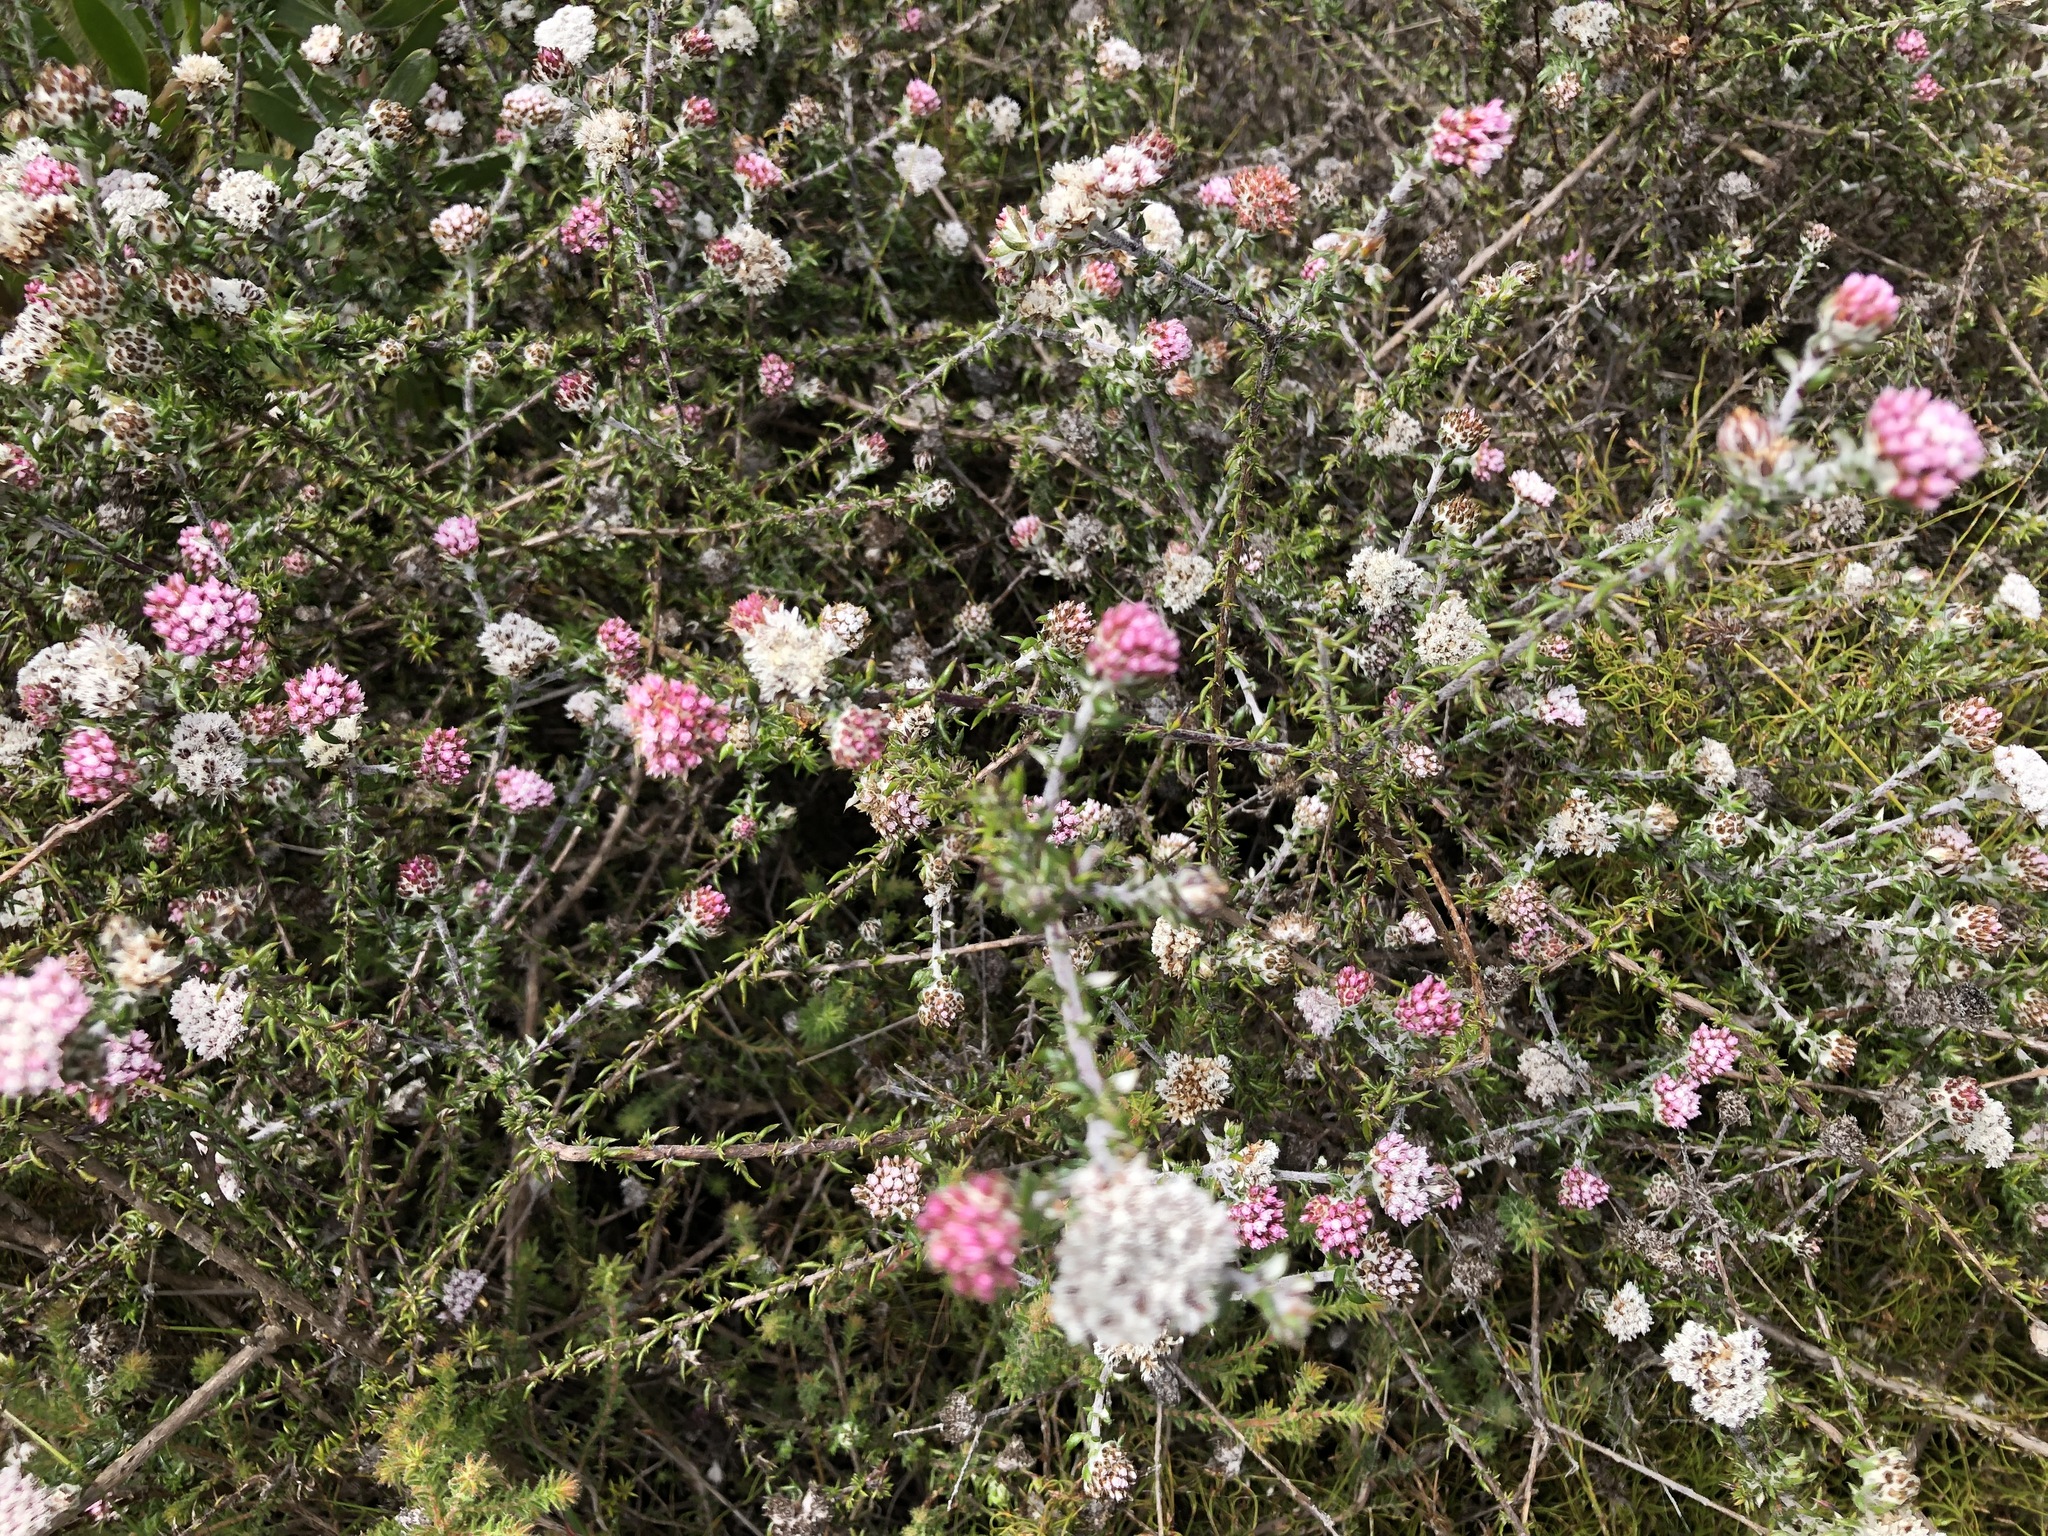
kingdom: Plantae
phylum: Tracheophyta
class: Magnoliopsida
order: Asterales
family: Asteraceae
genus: Metalasia
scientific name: Metalasia divergens
